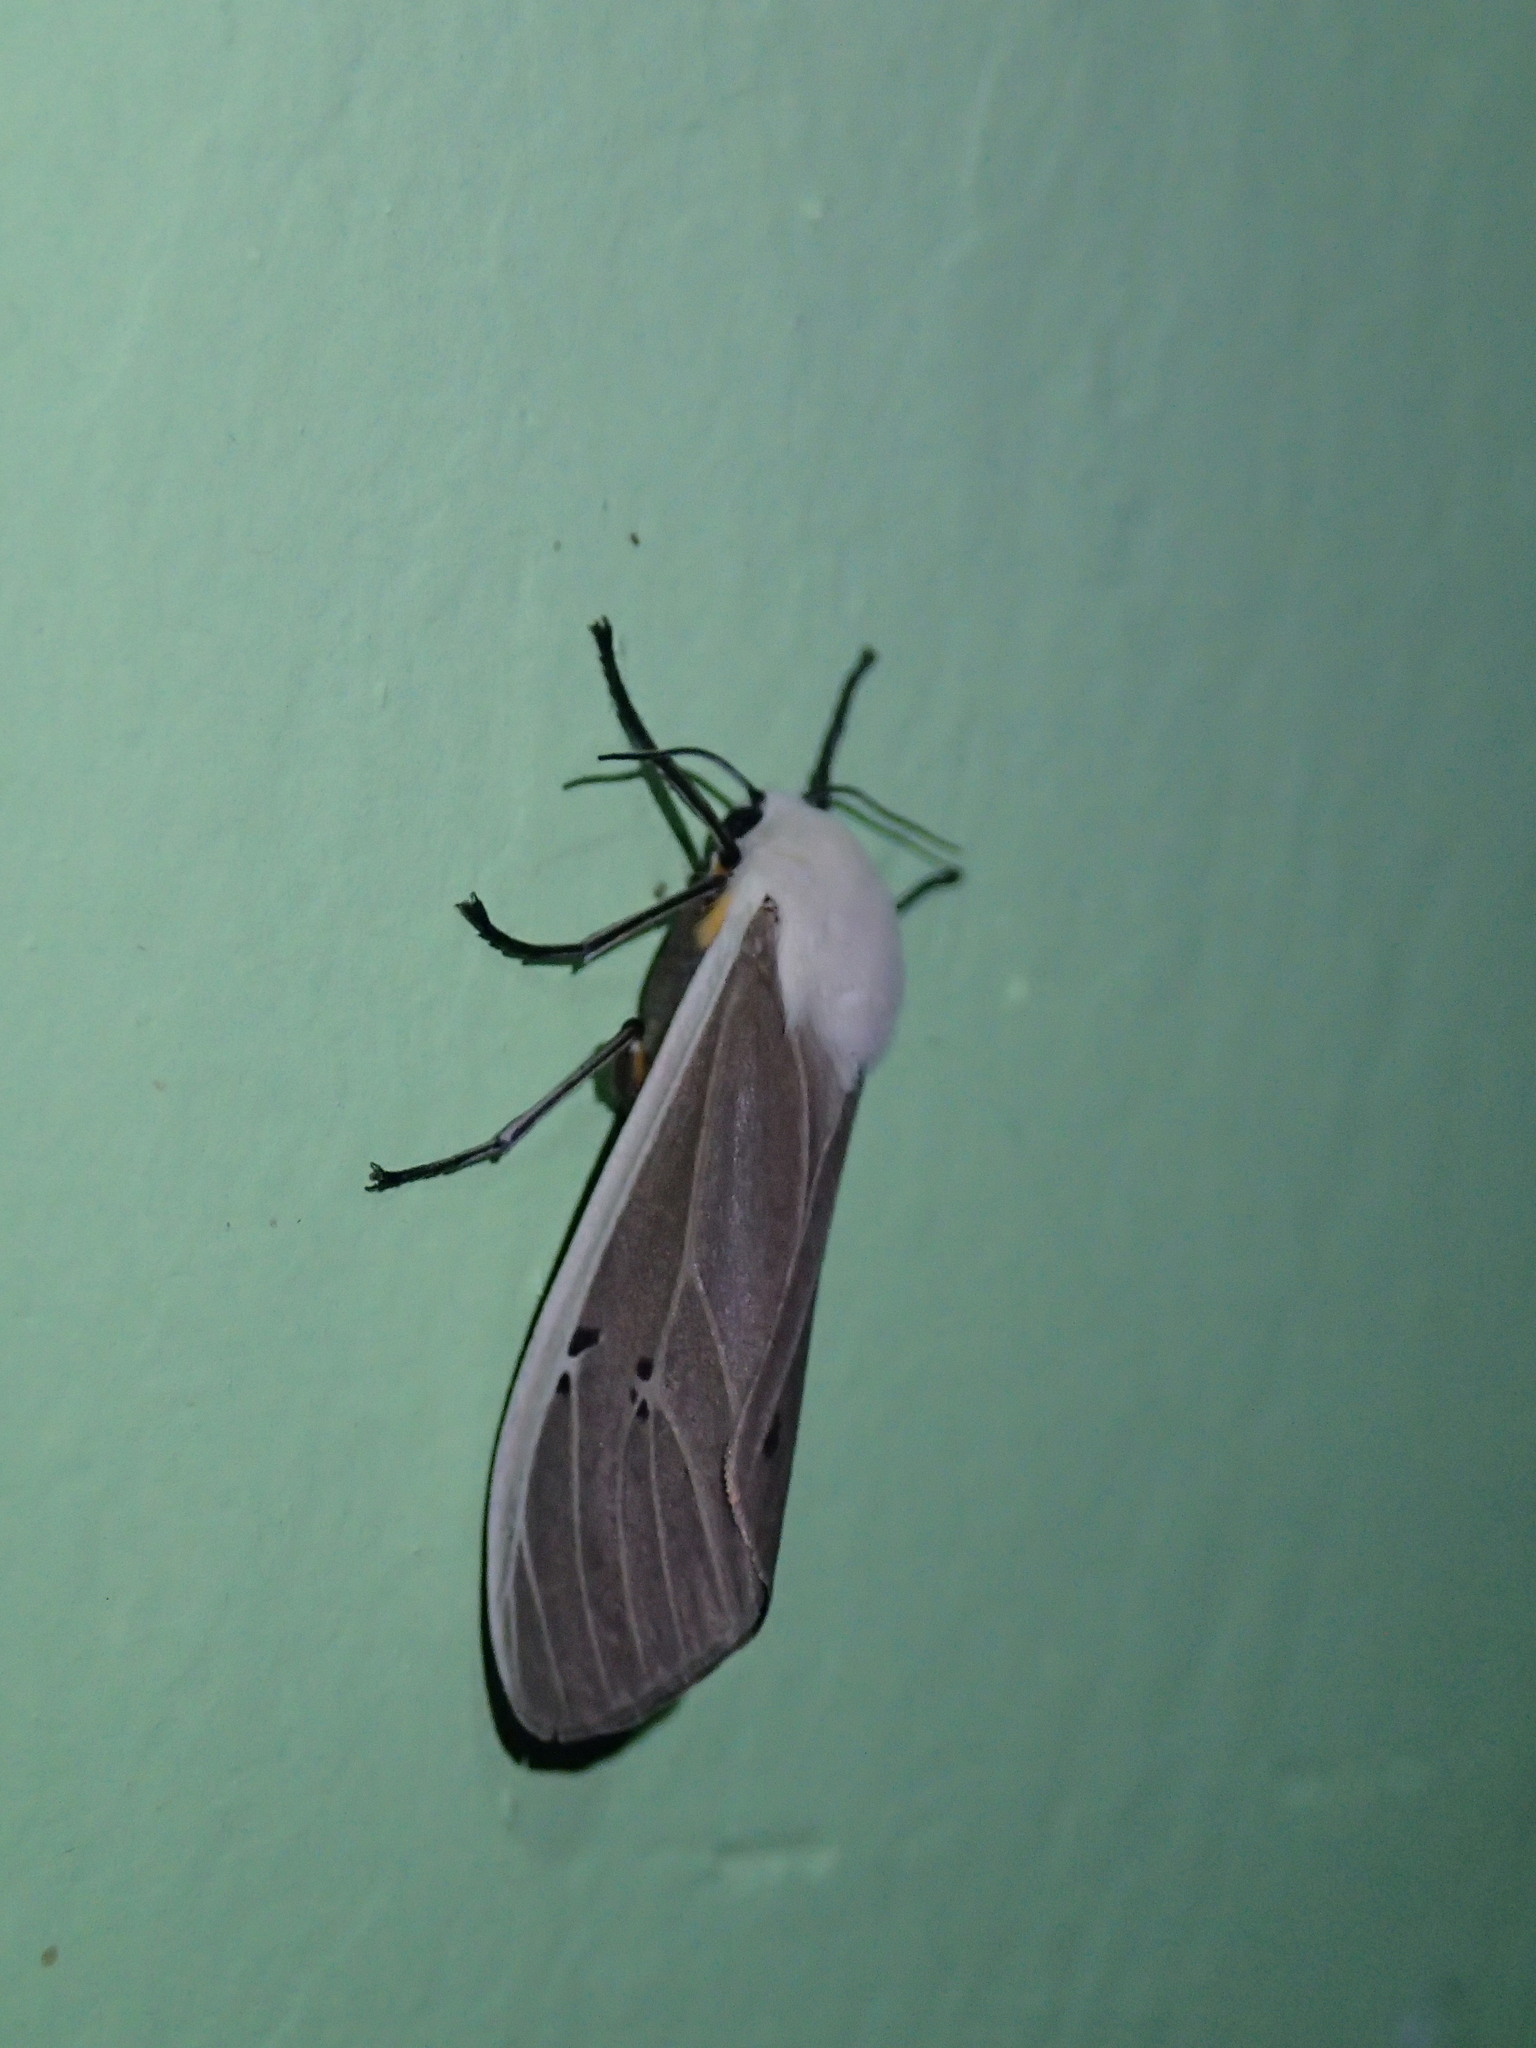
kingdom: Animalia
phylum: Arthropoda
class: Insecta
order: Lepidoptera
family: Erebidae
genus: Creatonotos
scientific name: Creatonotos transiens
